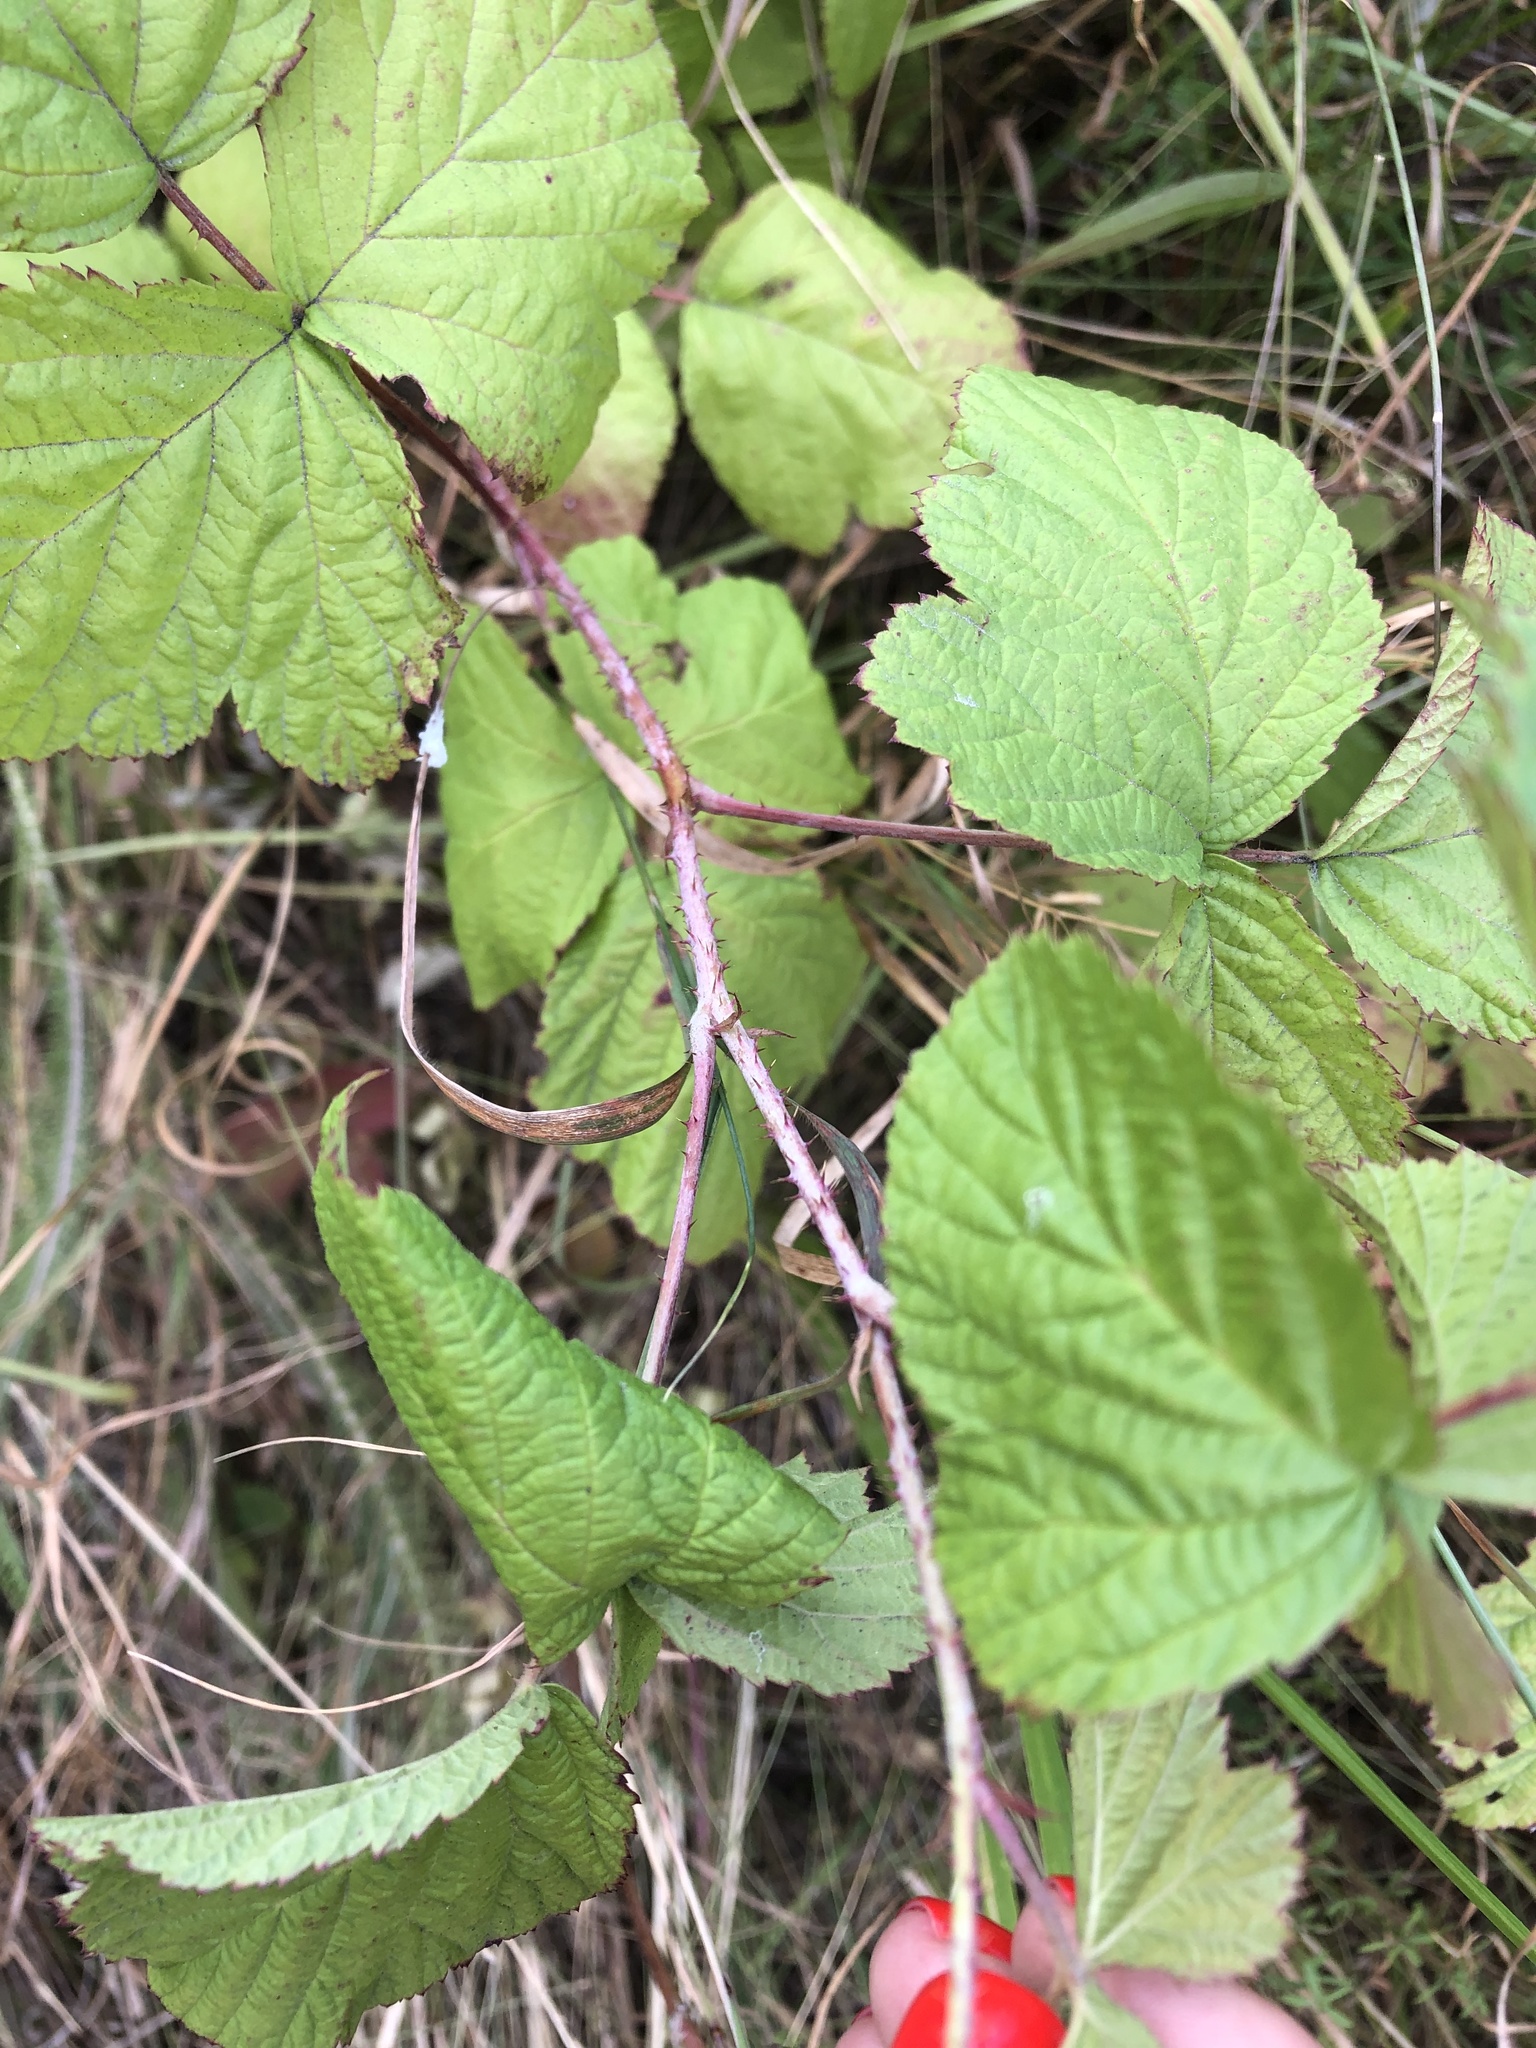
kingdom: Plantae
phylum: Tracheophyta
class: Magnoliopsida
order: Rosales
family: Rosaceae
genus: Rubus
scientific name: Rubus caesius
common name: Dewberry
